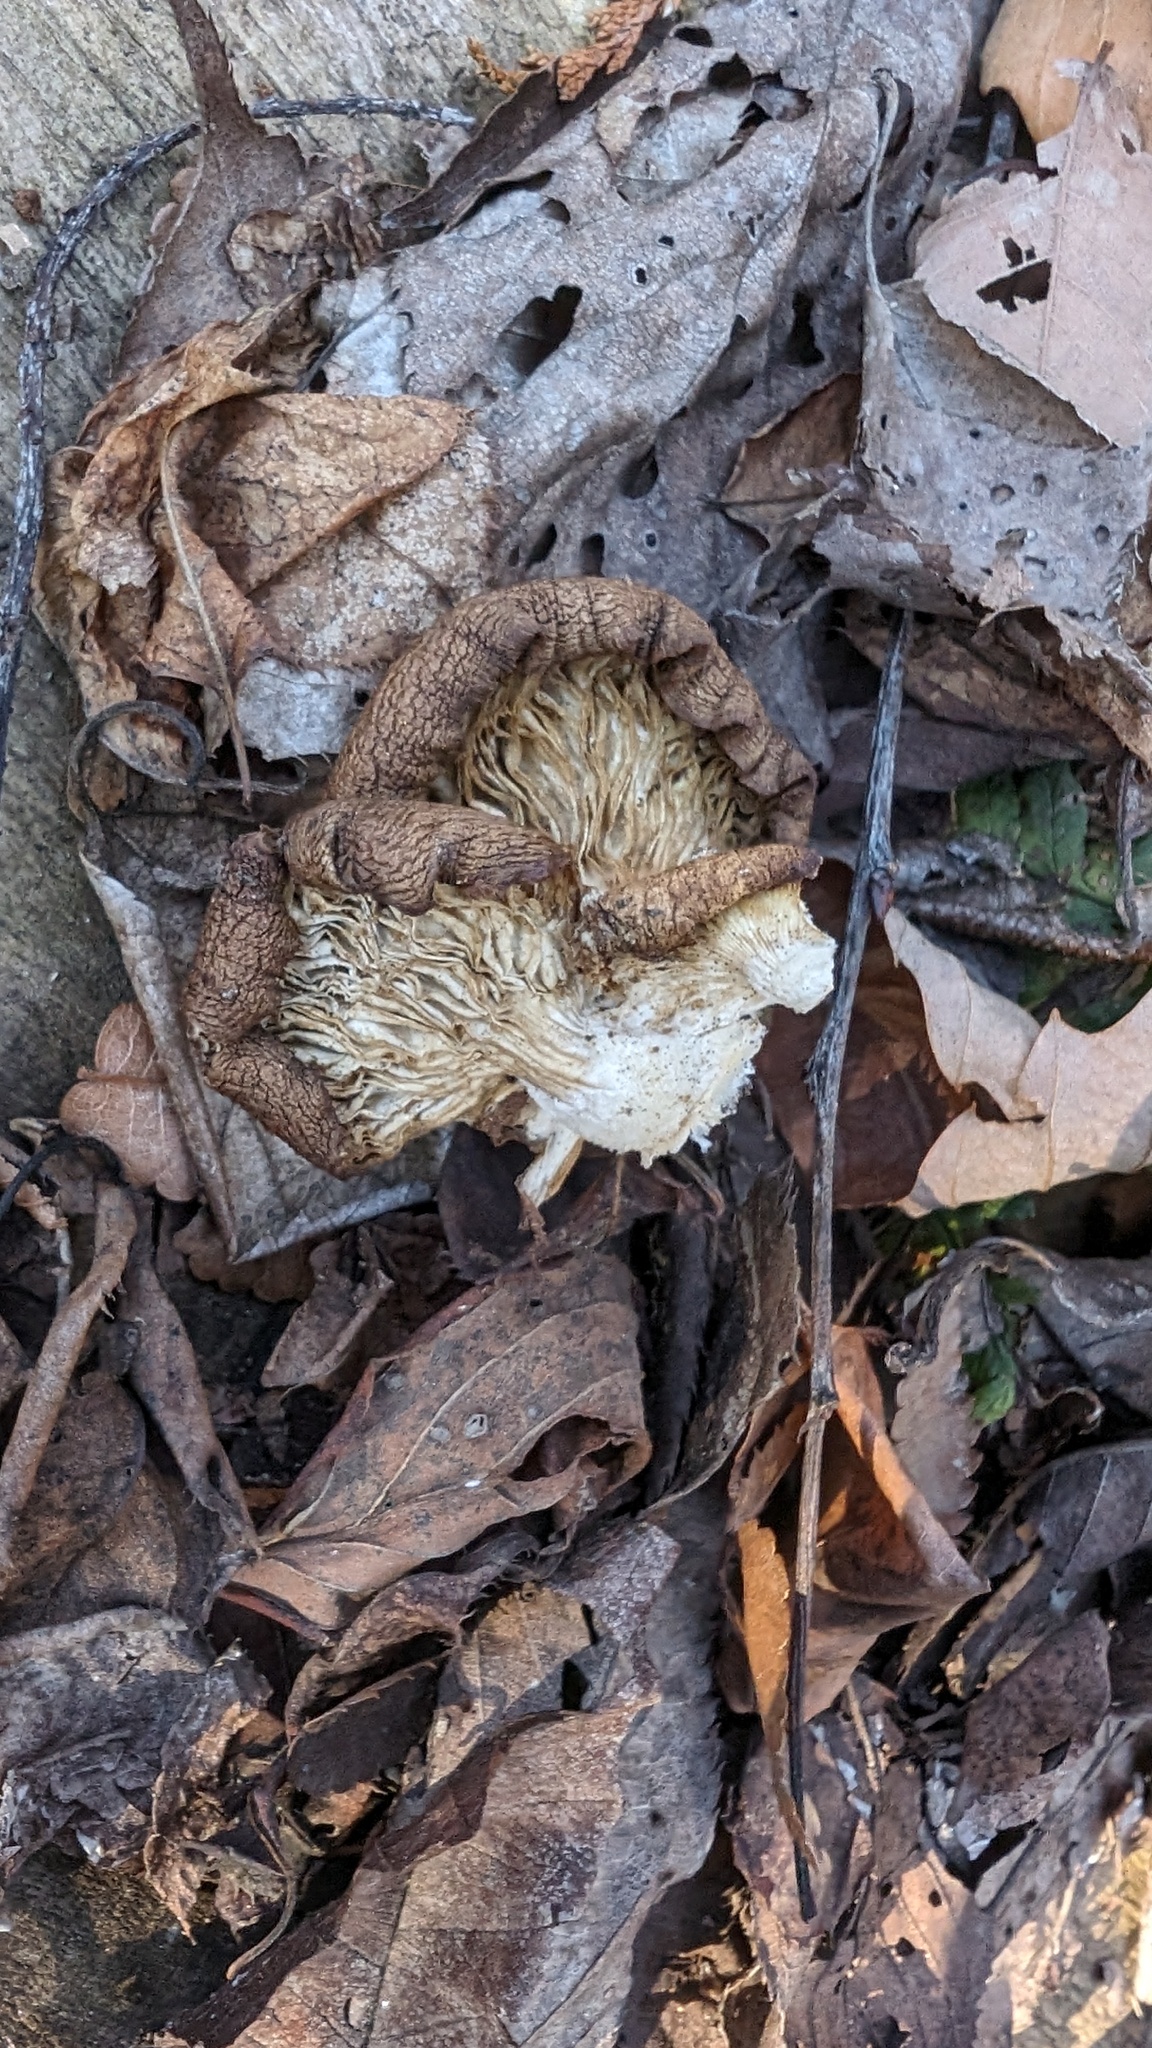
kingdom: Fungi
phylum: Basidiomycota
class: Agaricomycetes
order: Agaricales
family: Pleurotaceae
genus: Pleurotus
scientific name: Pleurotus ostreatus
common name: Oyster mushroom
